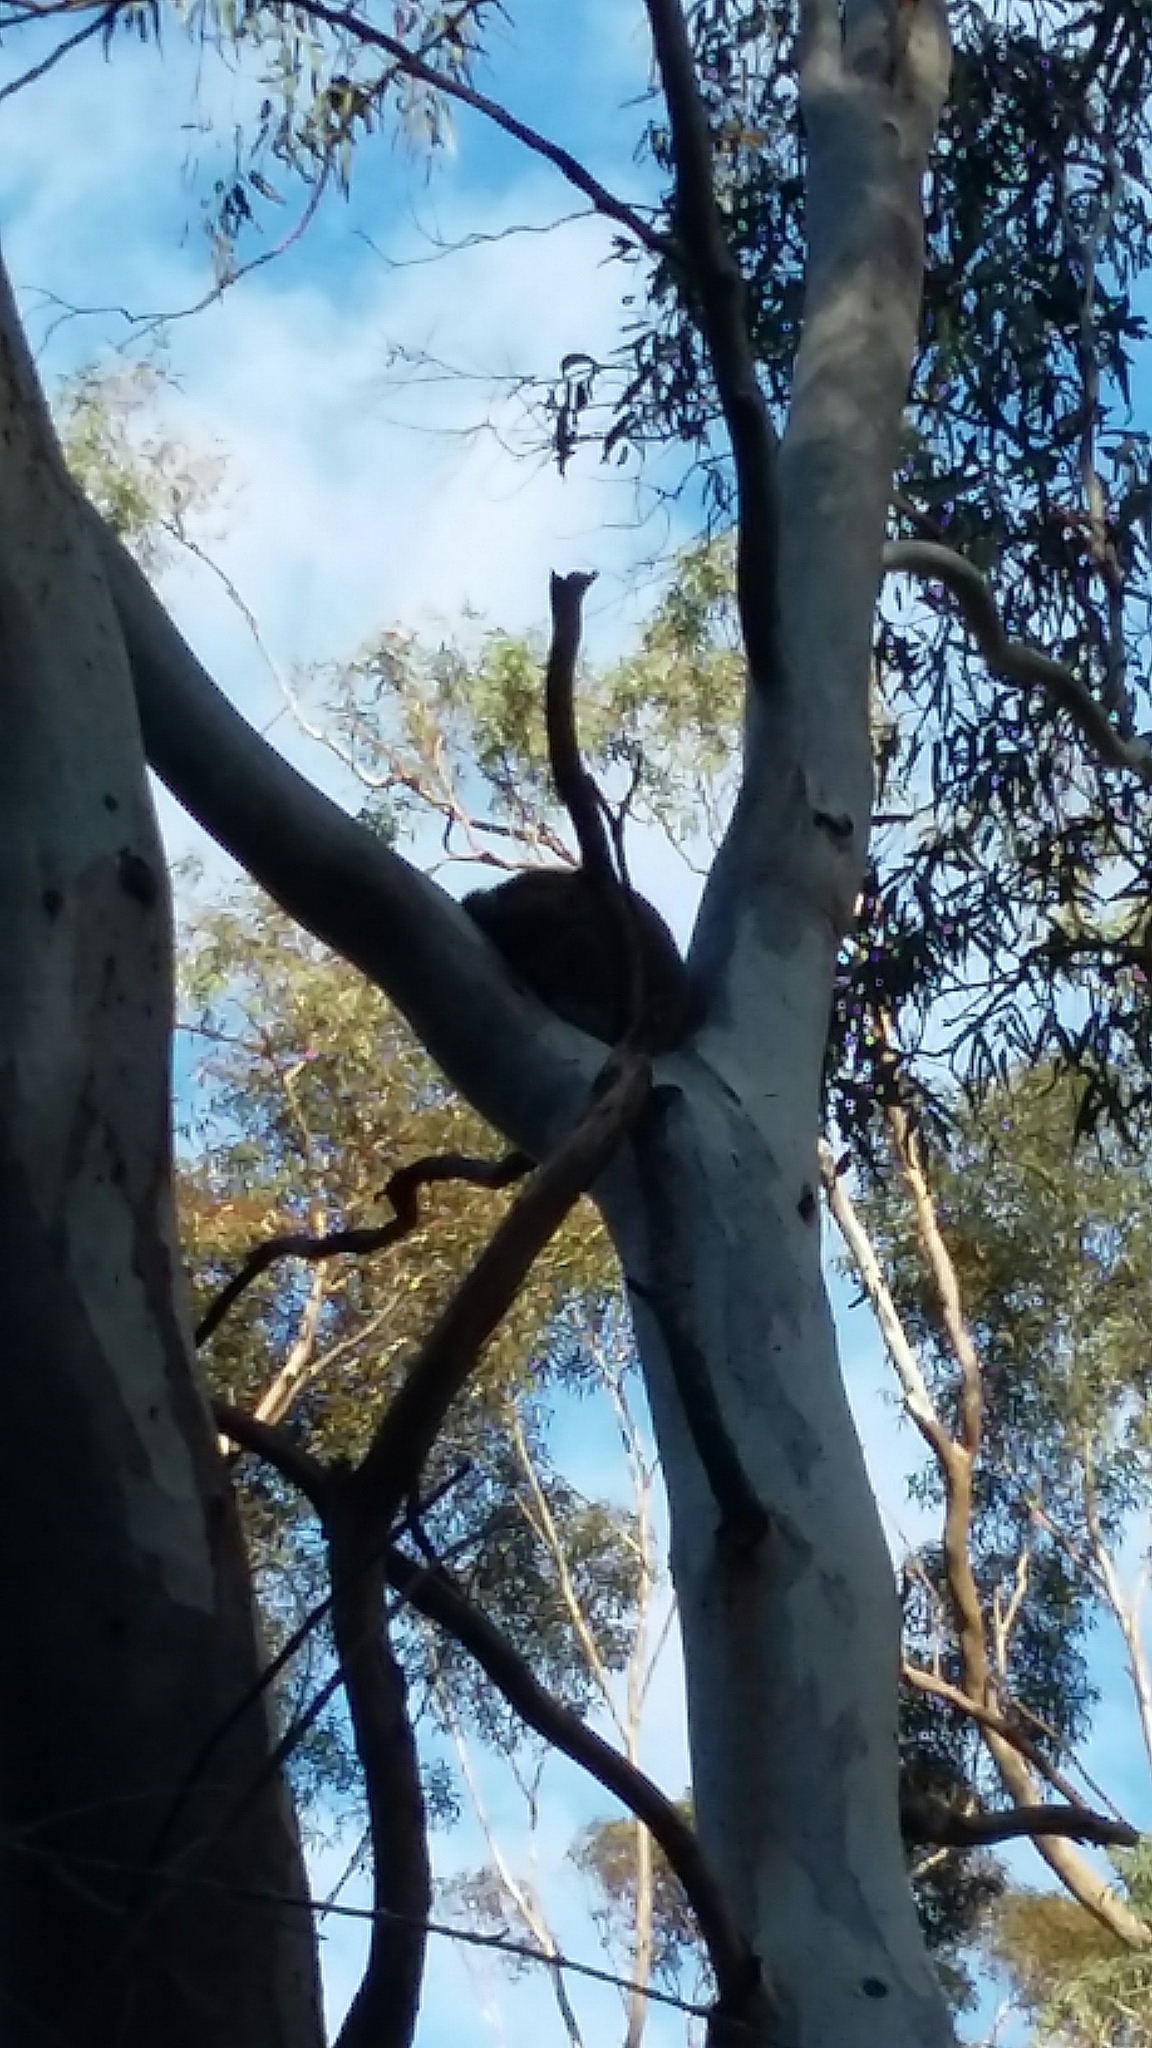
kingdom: Animalia
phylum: Chordata
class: Mammalia
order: Diprotodontia
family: Phascolarctidae
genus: Phascolarctos
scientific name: Phascolarctos cinereus
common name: Koala
